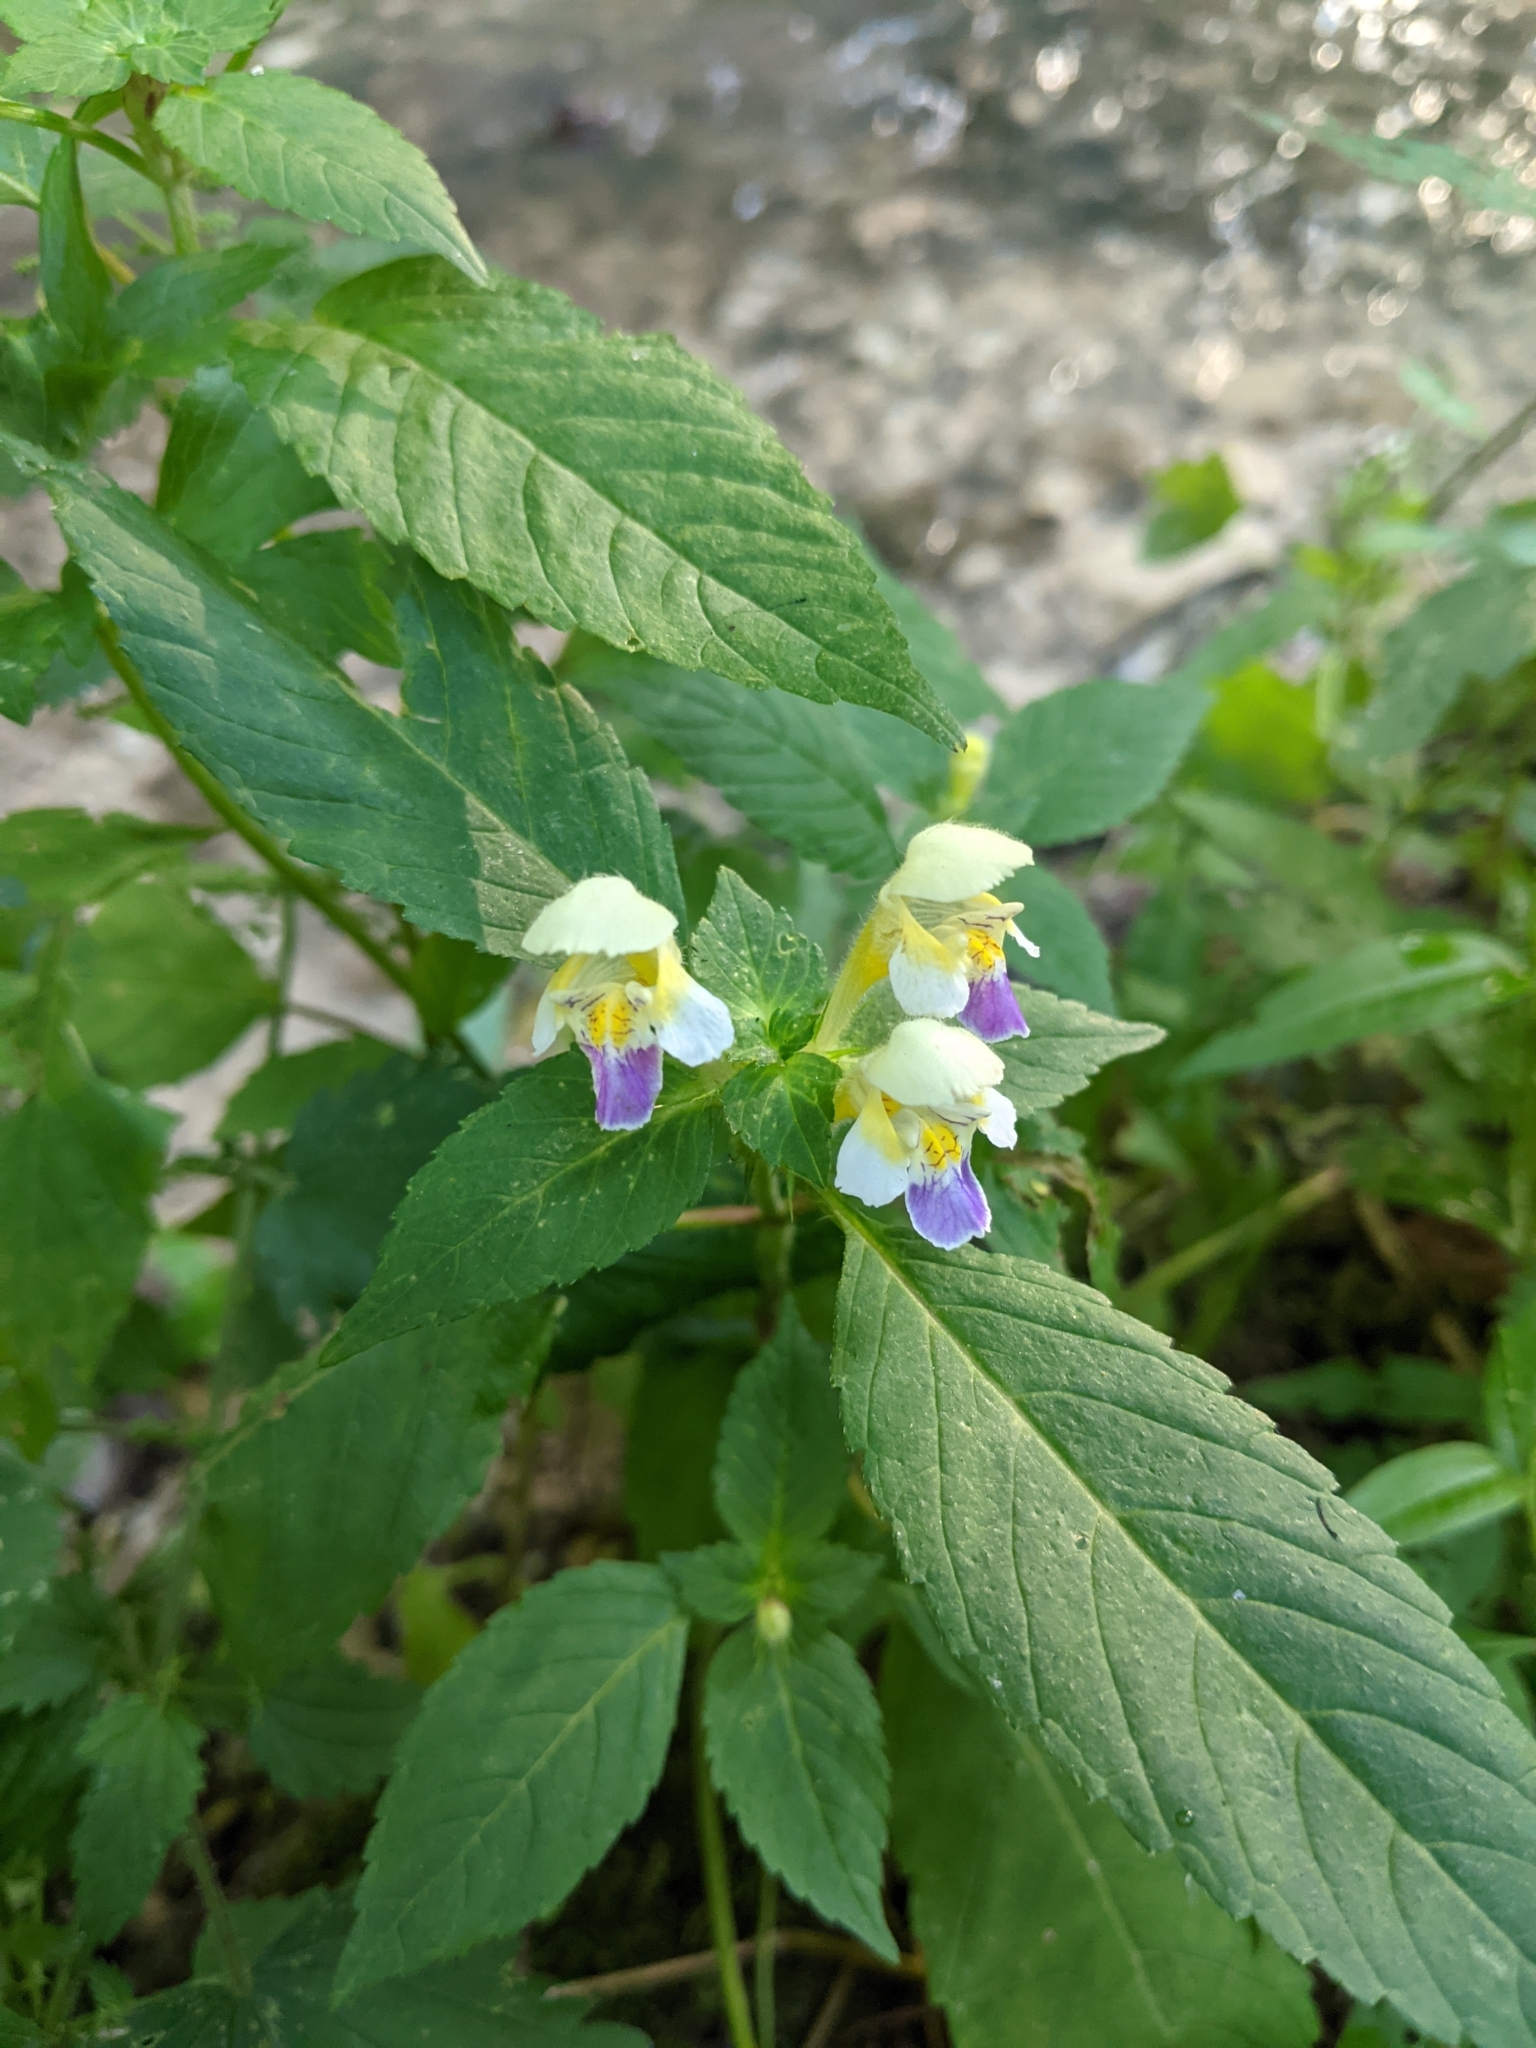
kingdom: Plantae
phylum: Tracheophyta
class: Magnoliopsida
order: Lamiales
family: Lamiaceae
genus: Galeopsis
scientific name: Galeopsis speciosa
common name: Large-flowered hemp-nettle
